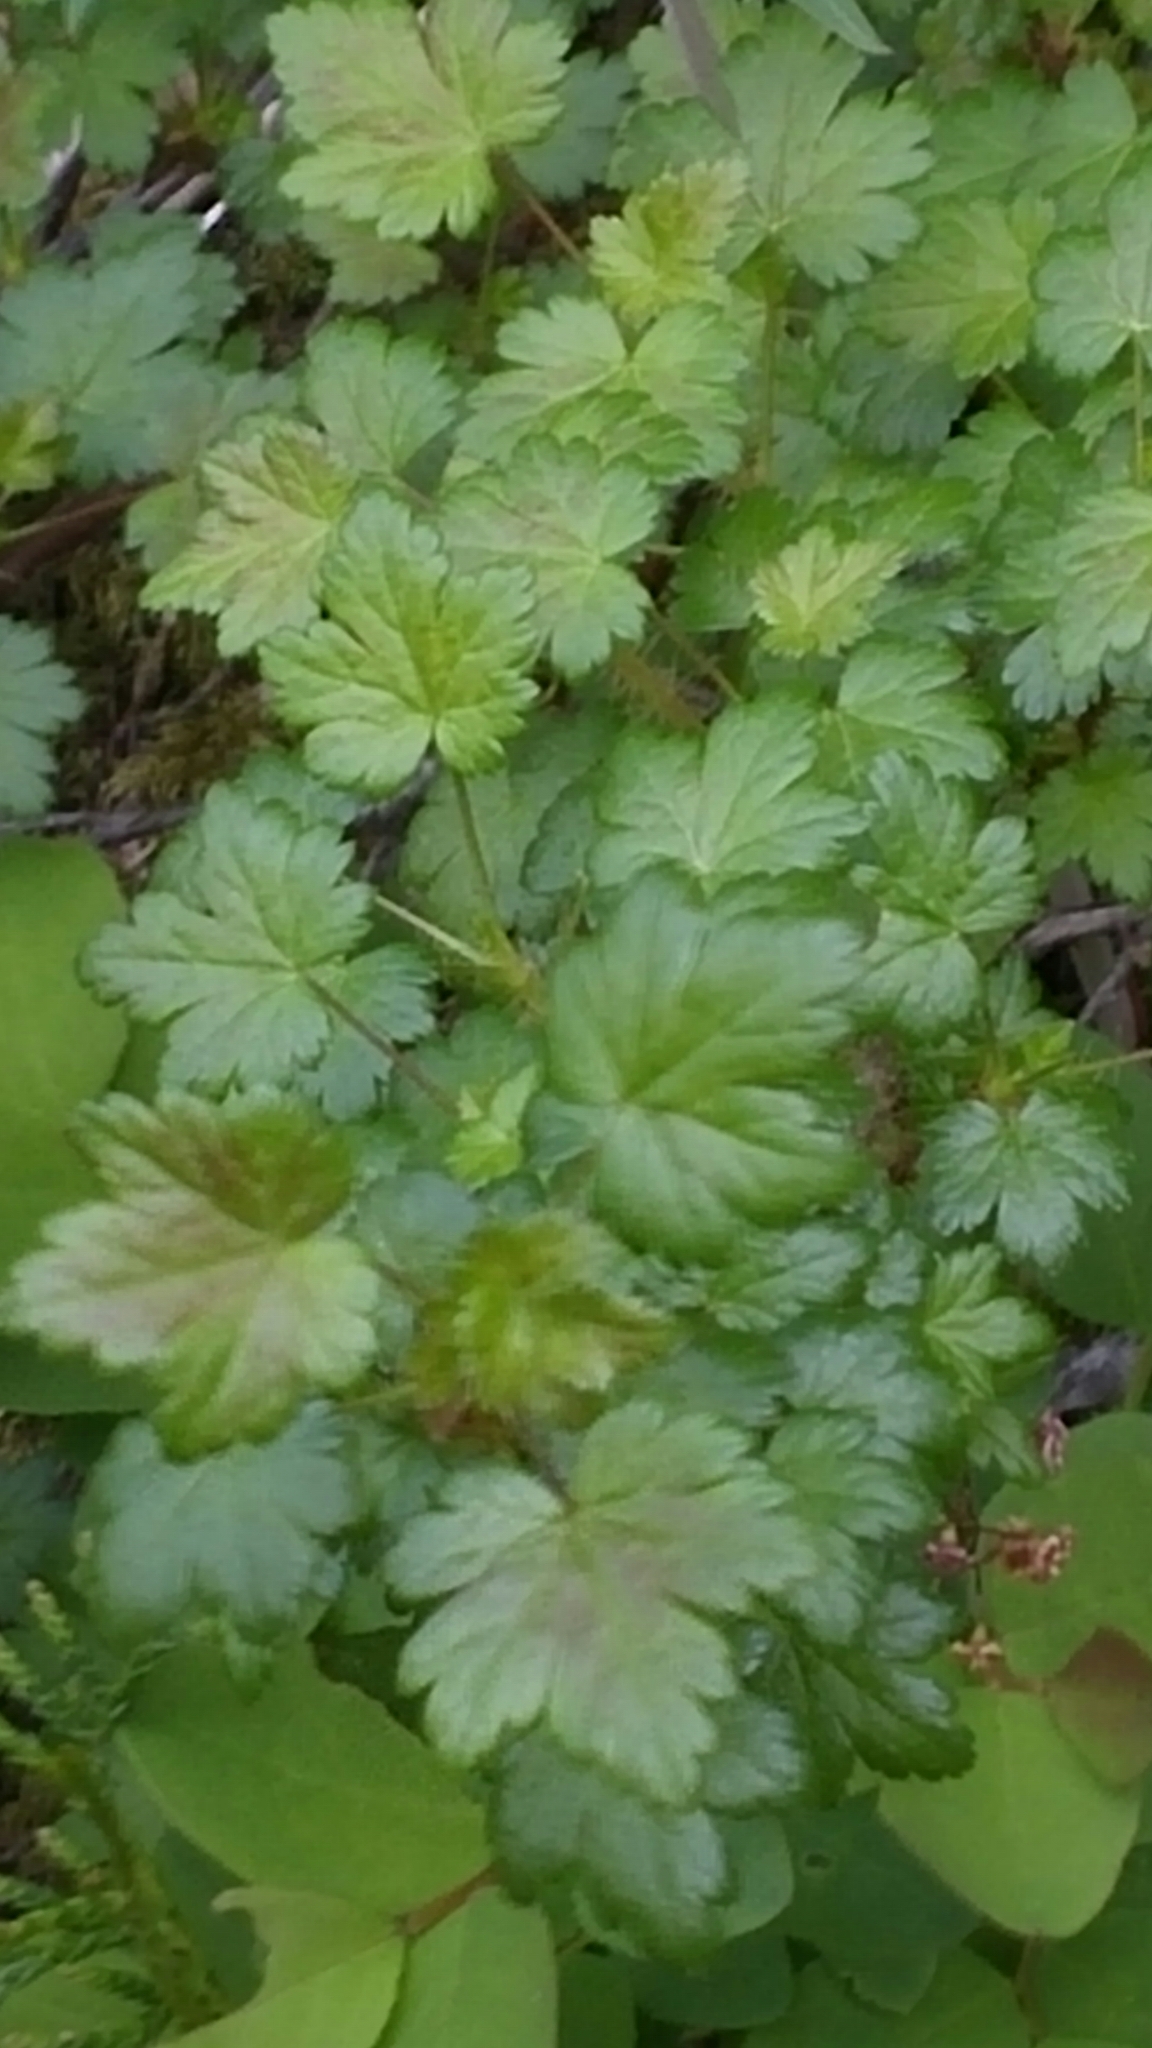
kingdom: Plantae
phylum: Tracheophyta
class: Magnoliopsida
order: Saxifragales
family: Grossulariaceae
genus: Ribes
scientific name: Ribes lacustre
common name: Black gooseberry
